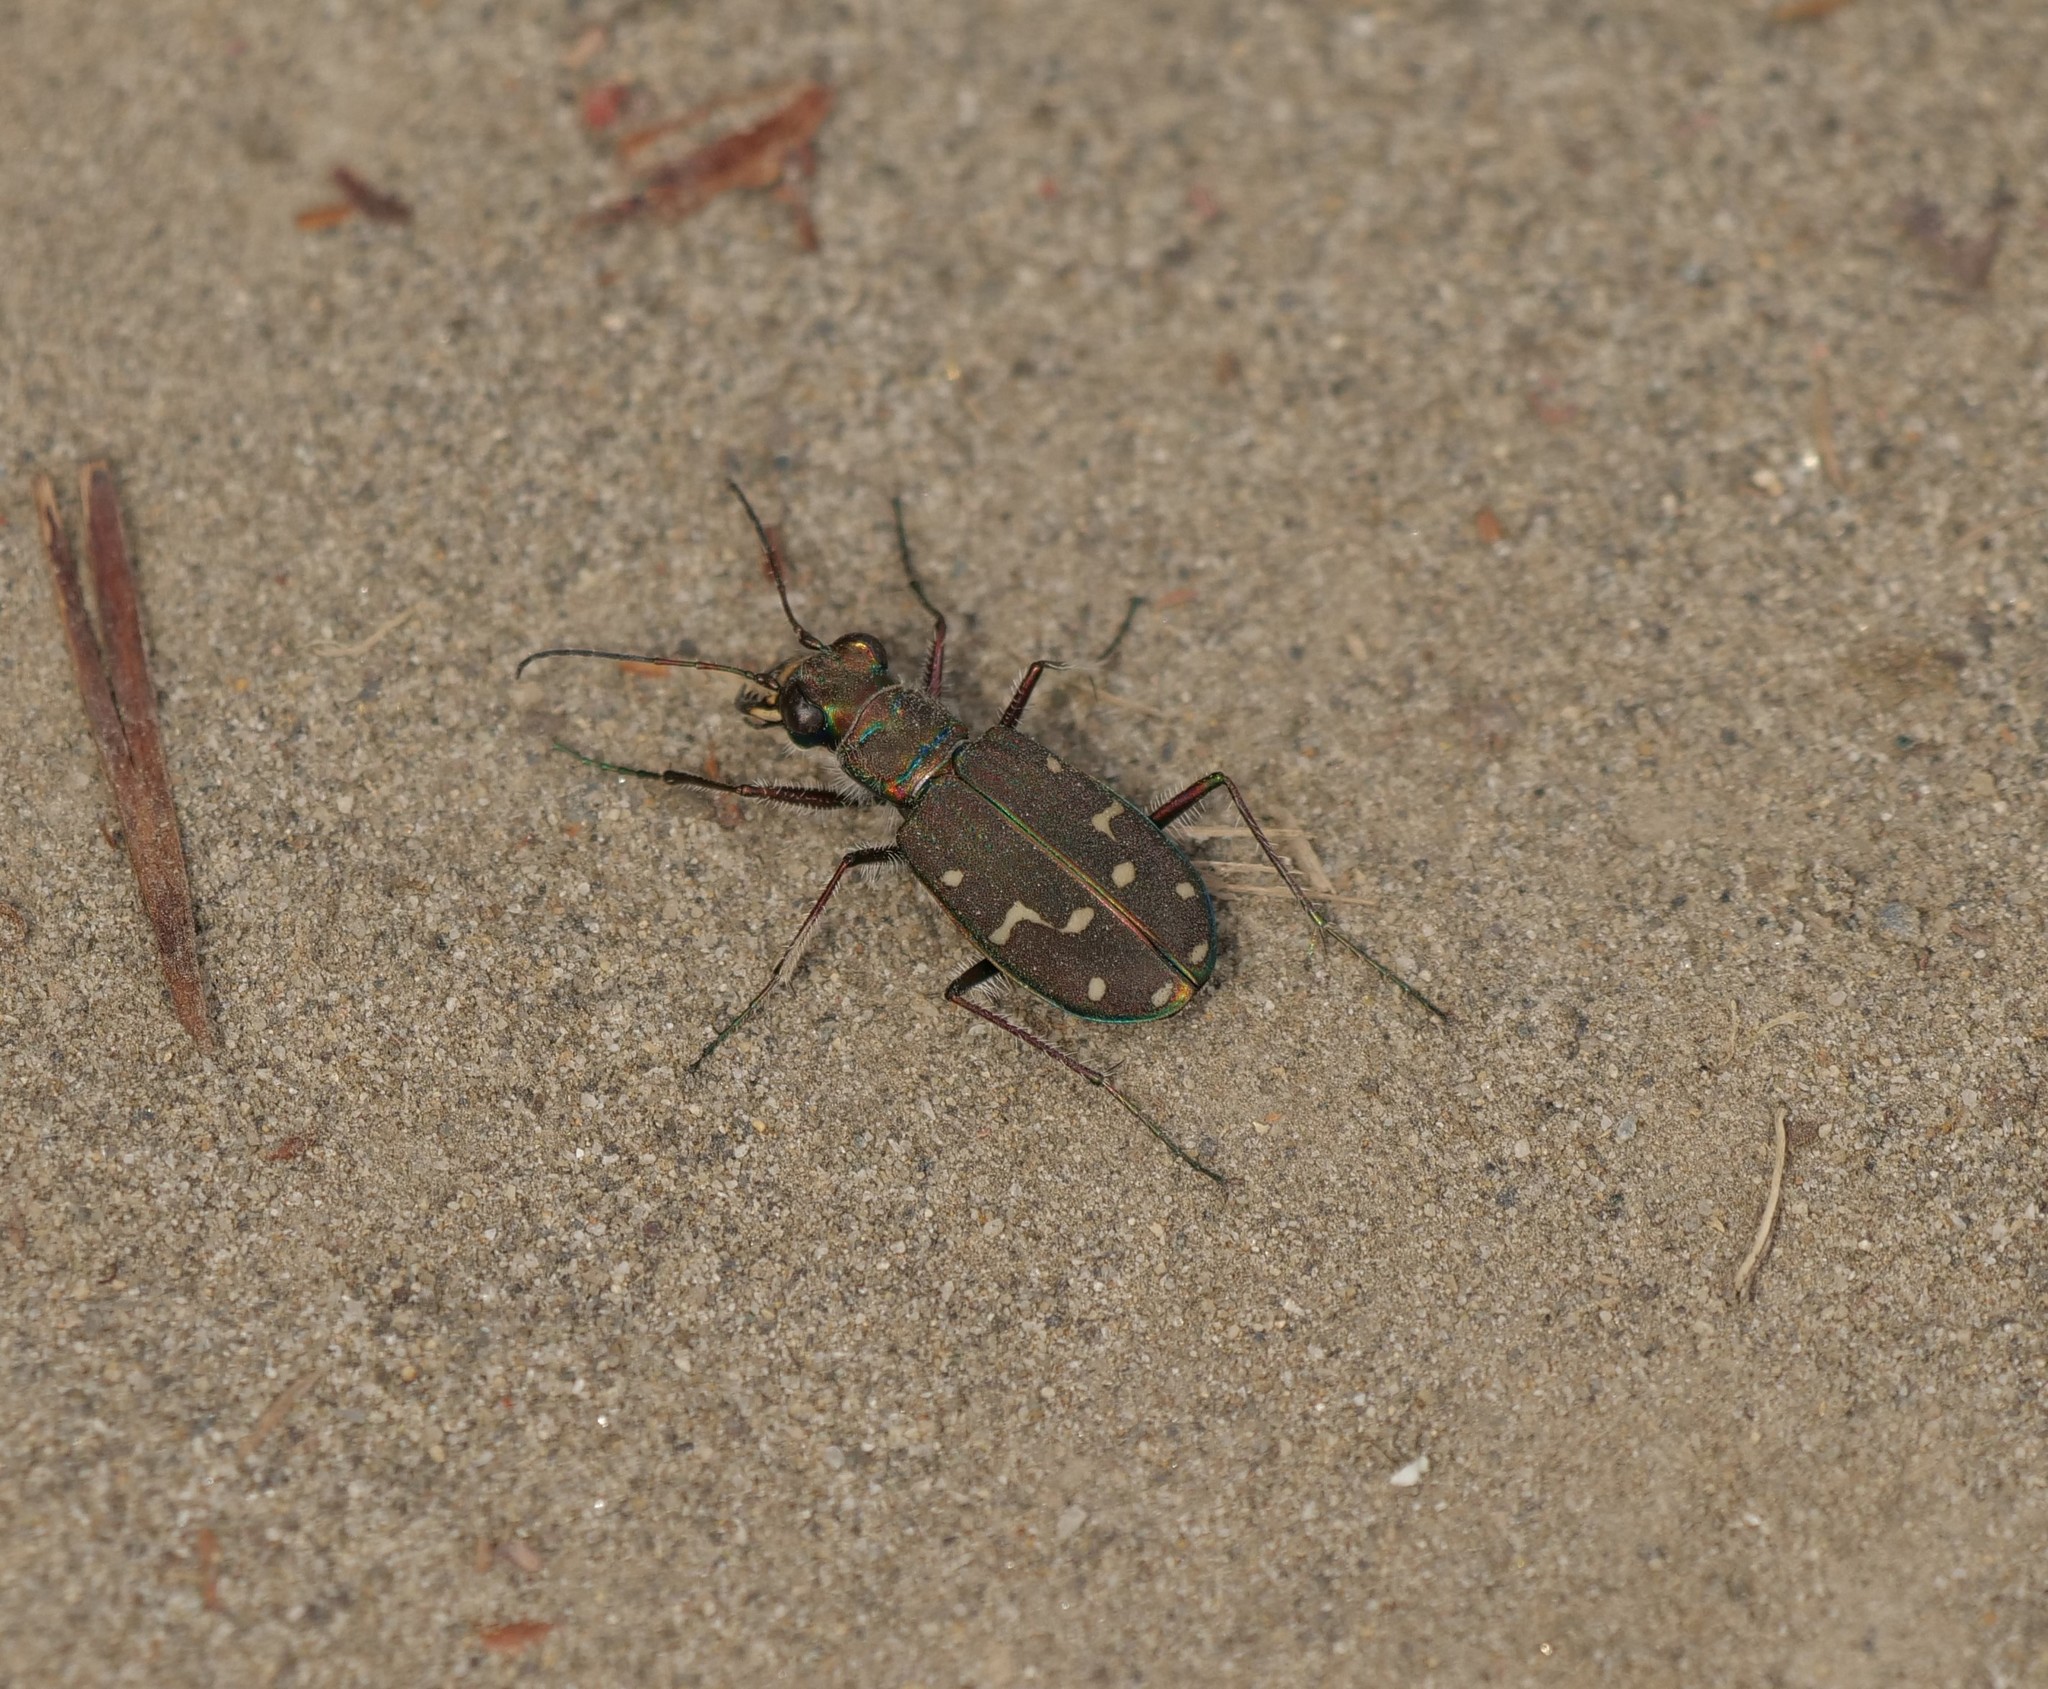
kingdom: Animalia
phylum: Arthropoda
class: Insecta
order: Coleoptera
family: Carabidae
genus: Cicindela
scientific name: Cicindela oregona
